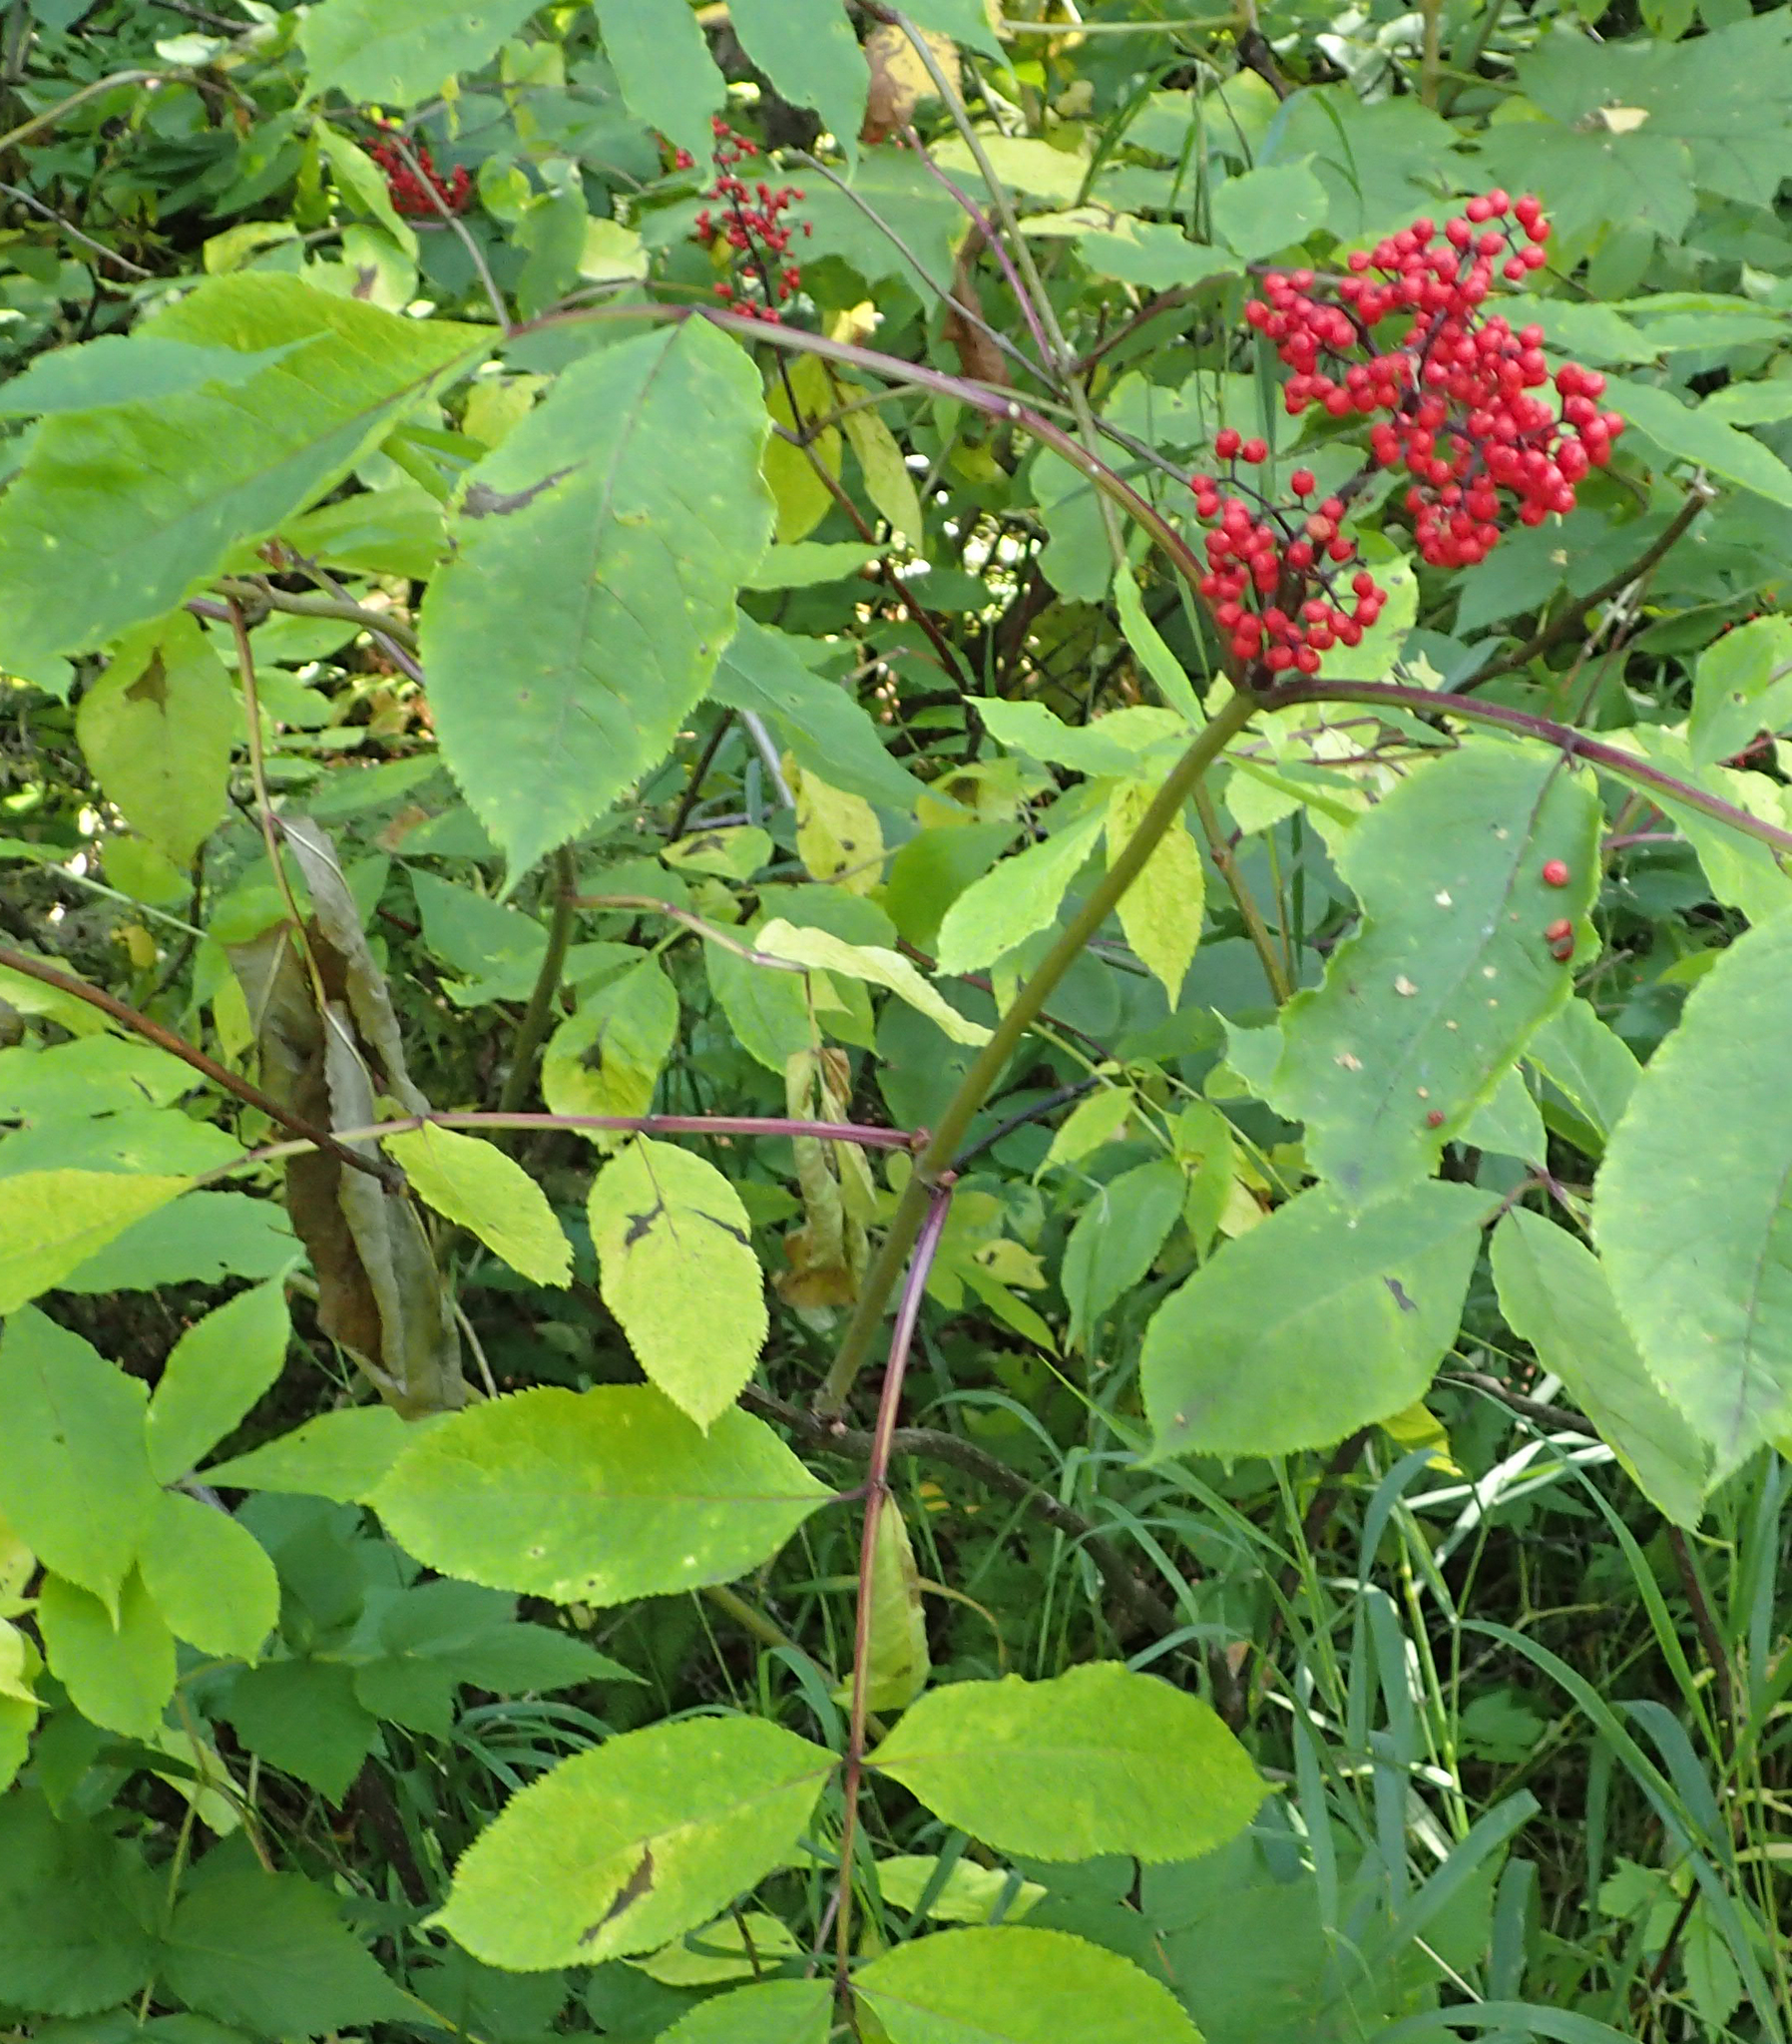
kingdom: Plantae
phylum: Tracheophyta
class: Magnoliopsida
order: Dipsacales
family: Viburnaceae
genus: Sambucus
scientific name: Sambucus racemosa
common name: Red-berried elder
